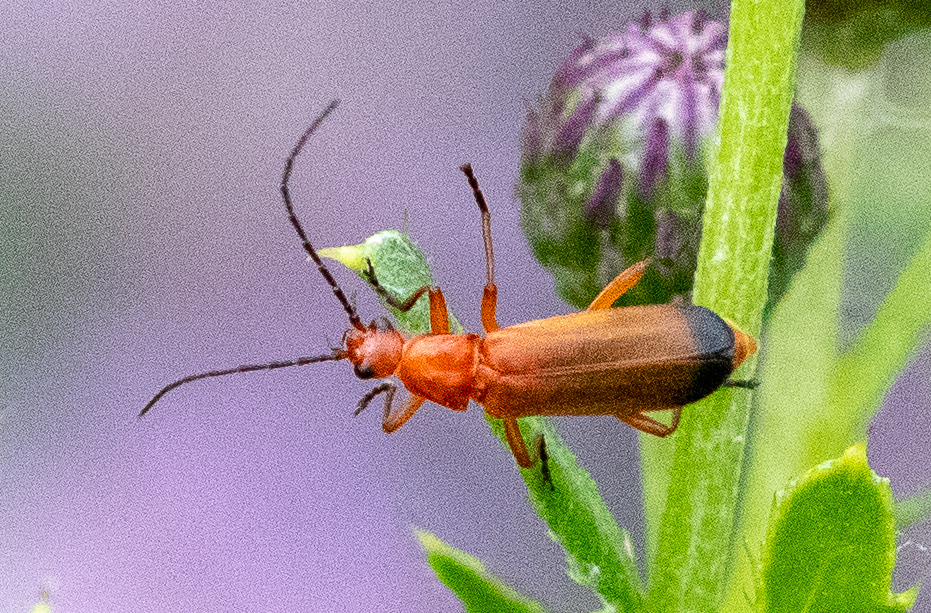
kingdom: Animalia
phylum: Arthropoda
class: Insecta
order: Coleoptera
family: Cantharidae
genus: Rhagonycha
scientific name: Rhagonycha fulva
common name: Common red soldier beetle
